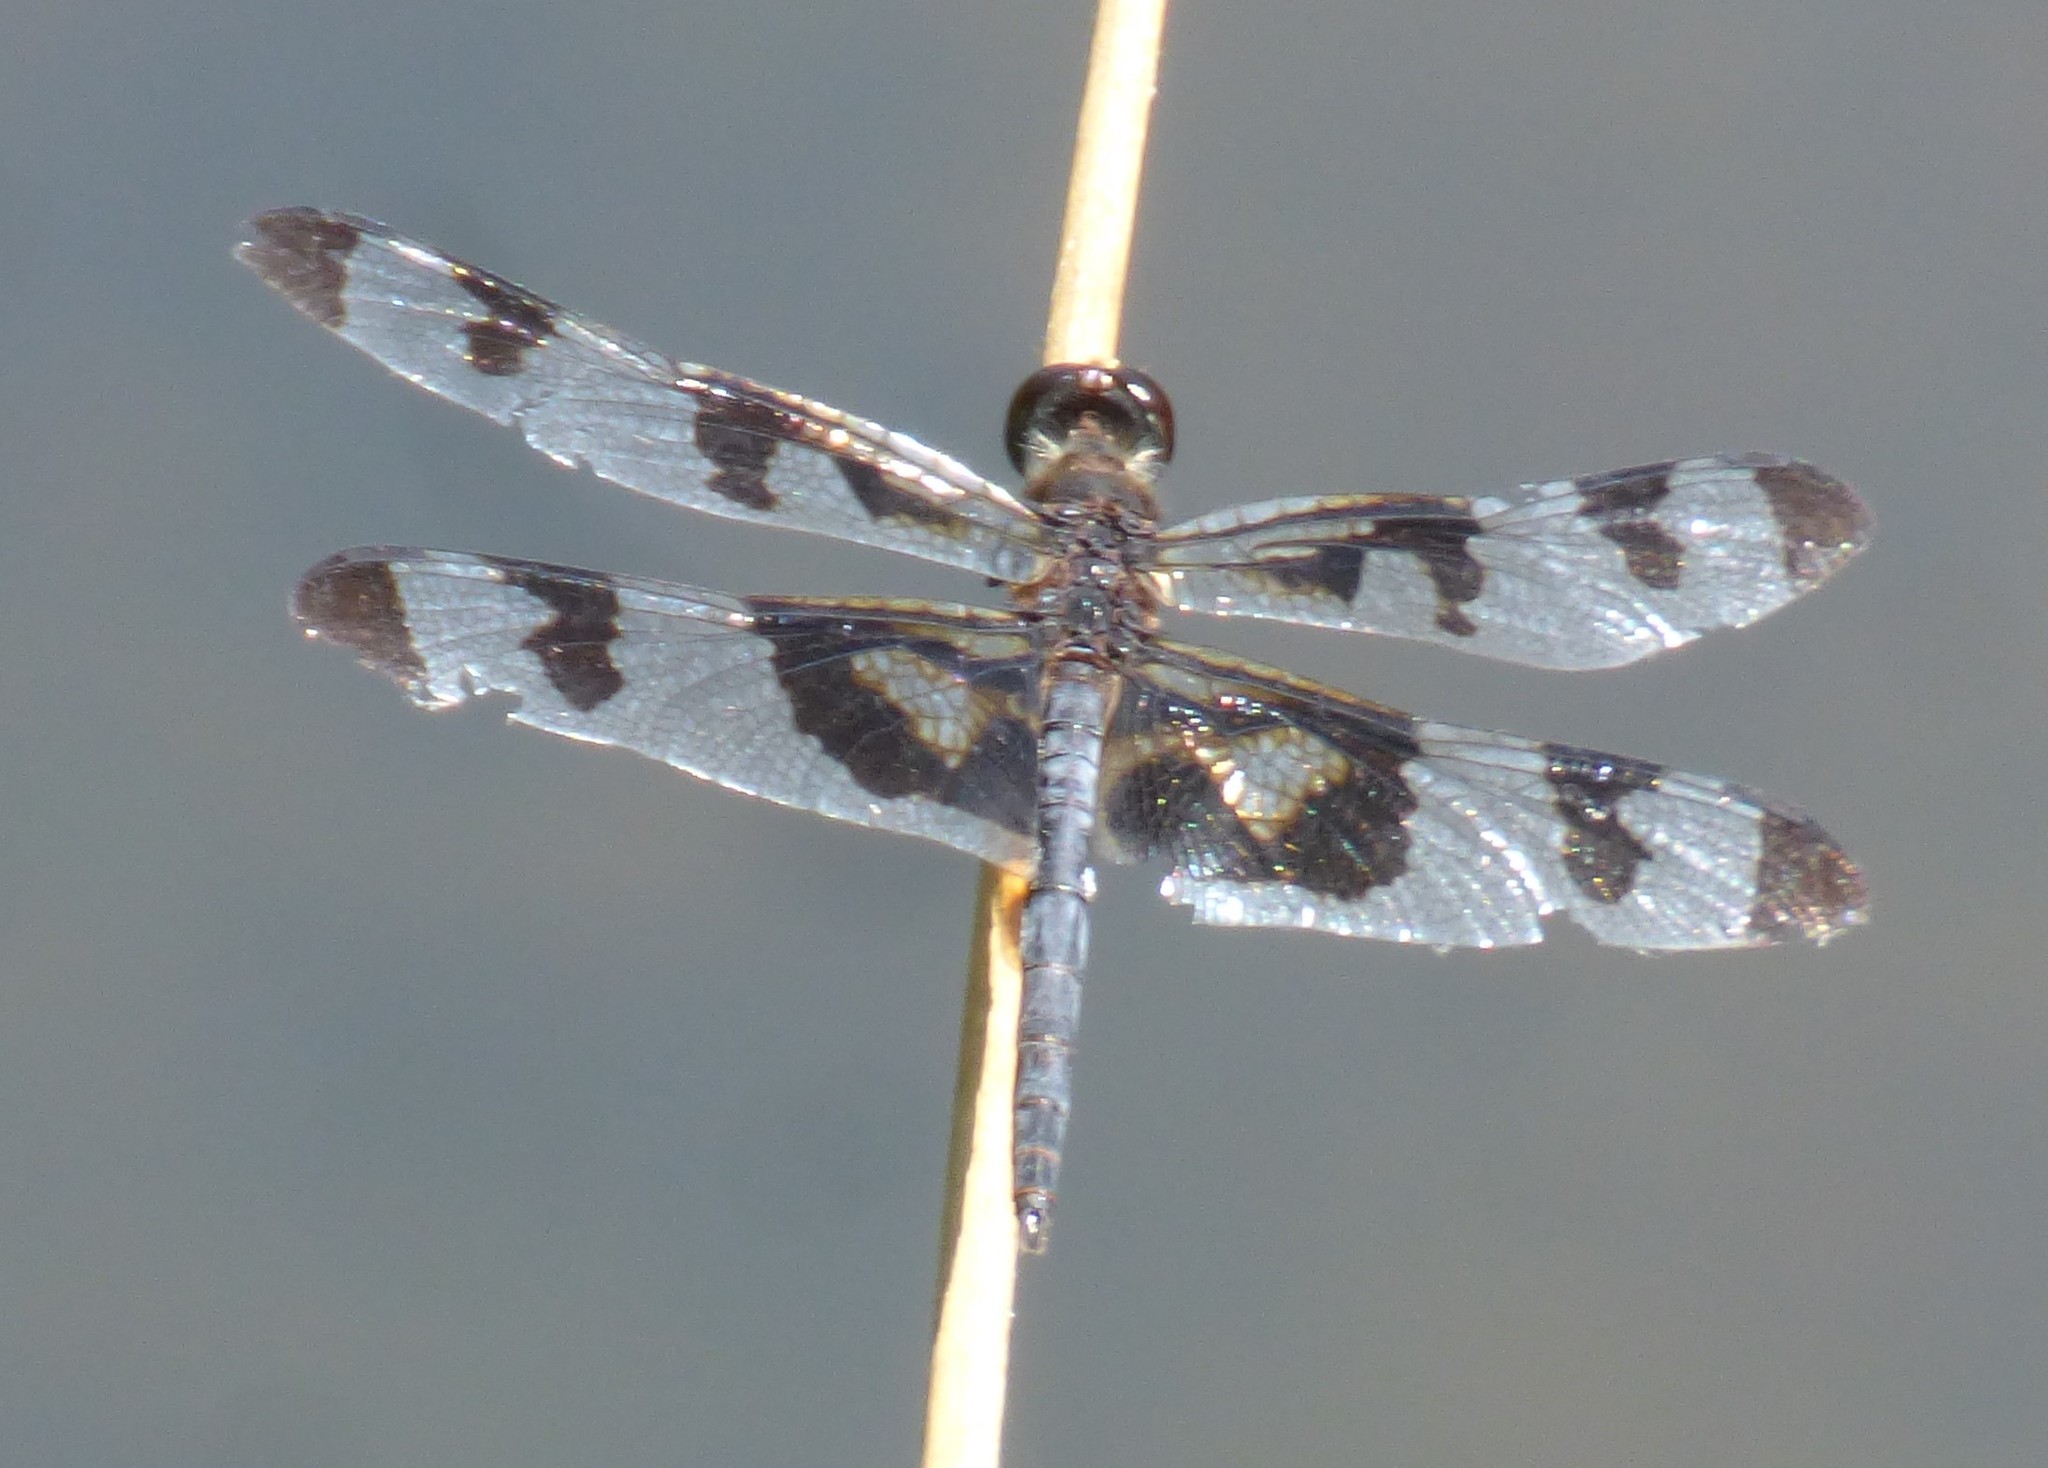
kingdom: Animalia
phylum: Arthropoda
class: Insecta
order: Odonata
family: Libellulidae
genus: Celithemis
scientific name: Celithemis fasciata
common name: Banded pennant
